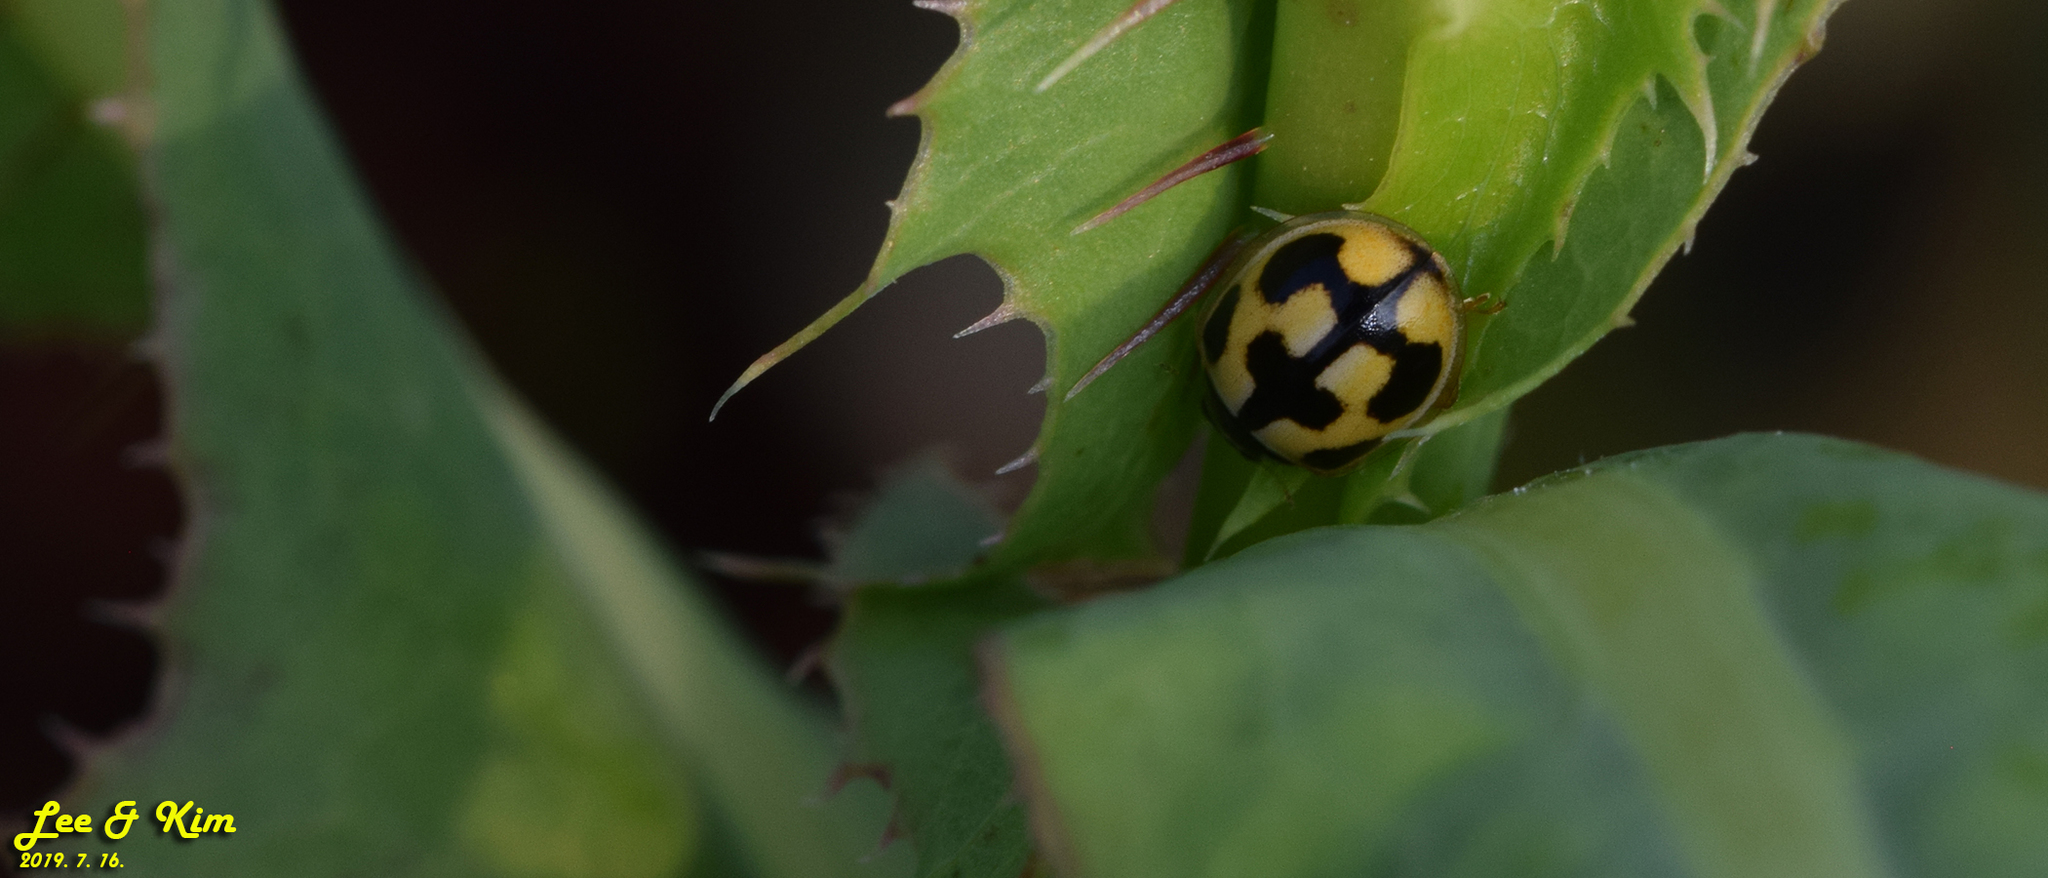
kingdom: Animalia
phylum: Arthropoda
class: Insecta
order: Coleoptera
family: Coccinellidae
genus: Propylea
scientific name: Propylea japonica
